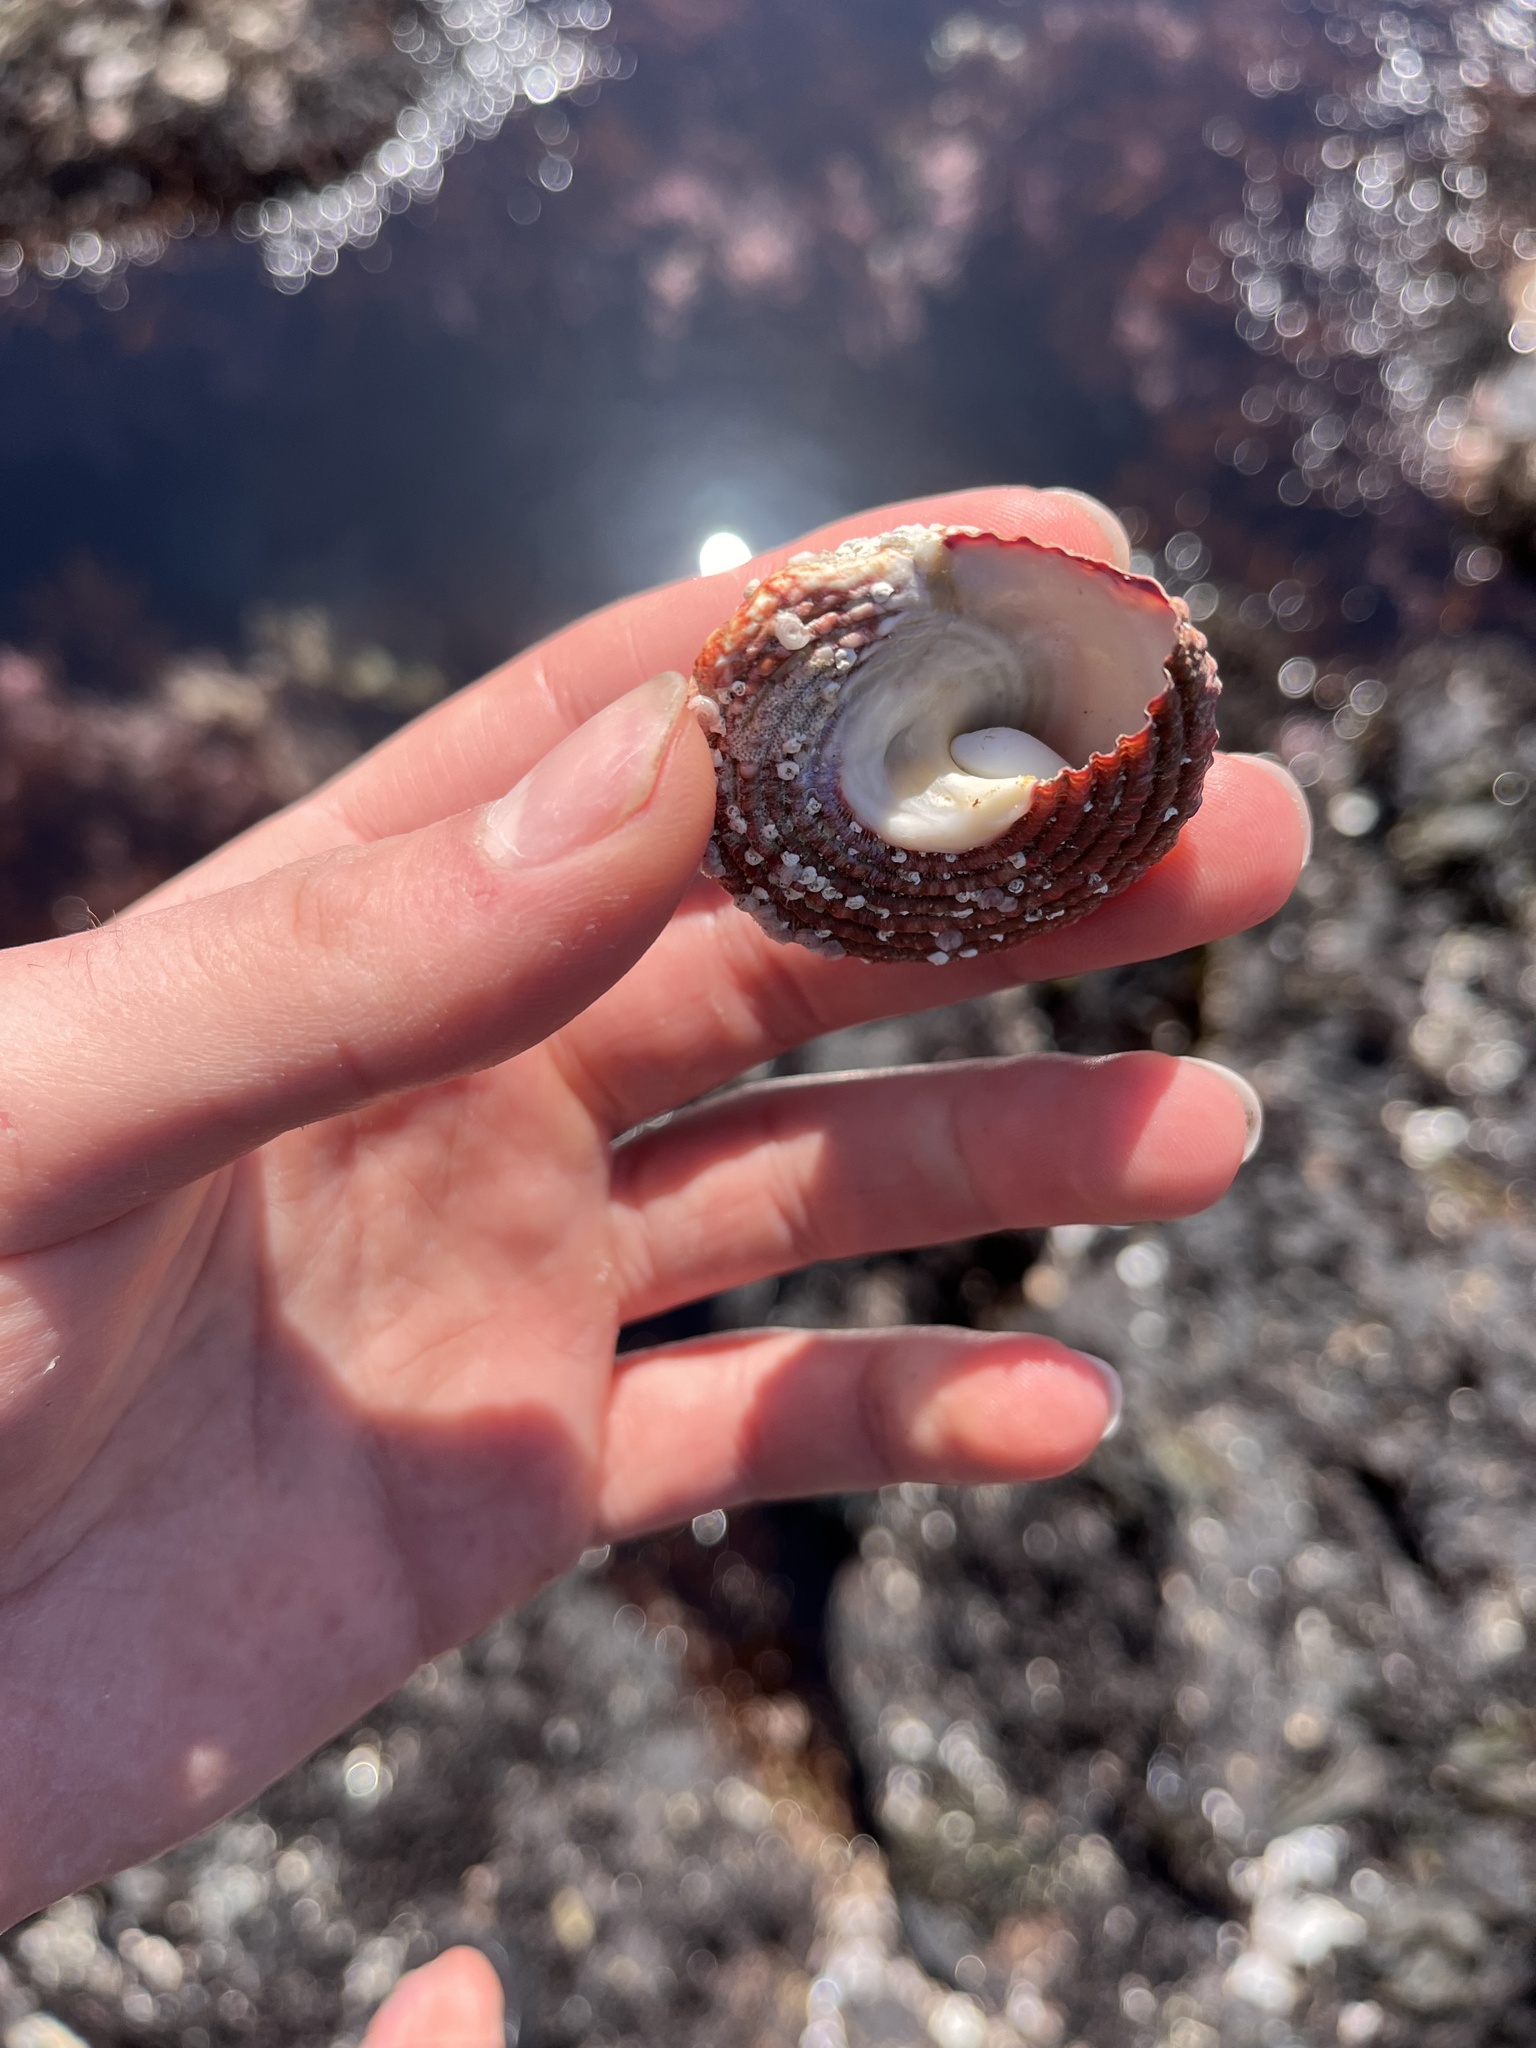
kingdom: Animalia
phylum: Mollusca
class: Gastropoda
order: Trochida
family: Turbinidae
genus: Pomaulax
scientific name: Pomaulax gibberosus
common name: Red turban
